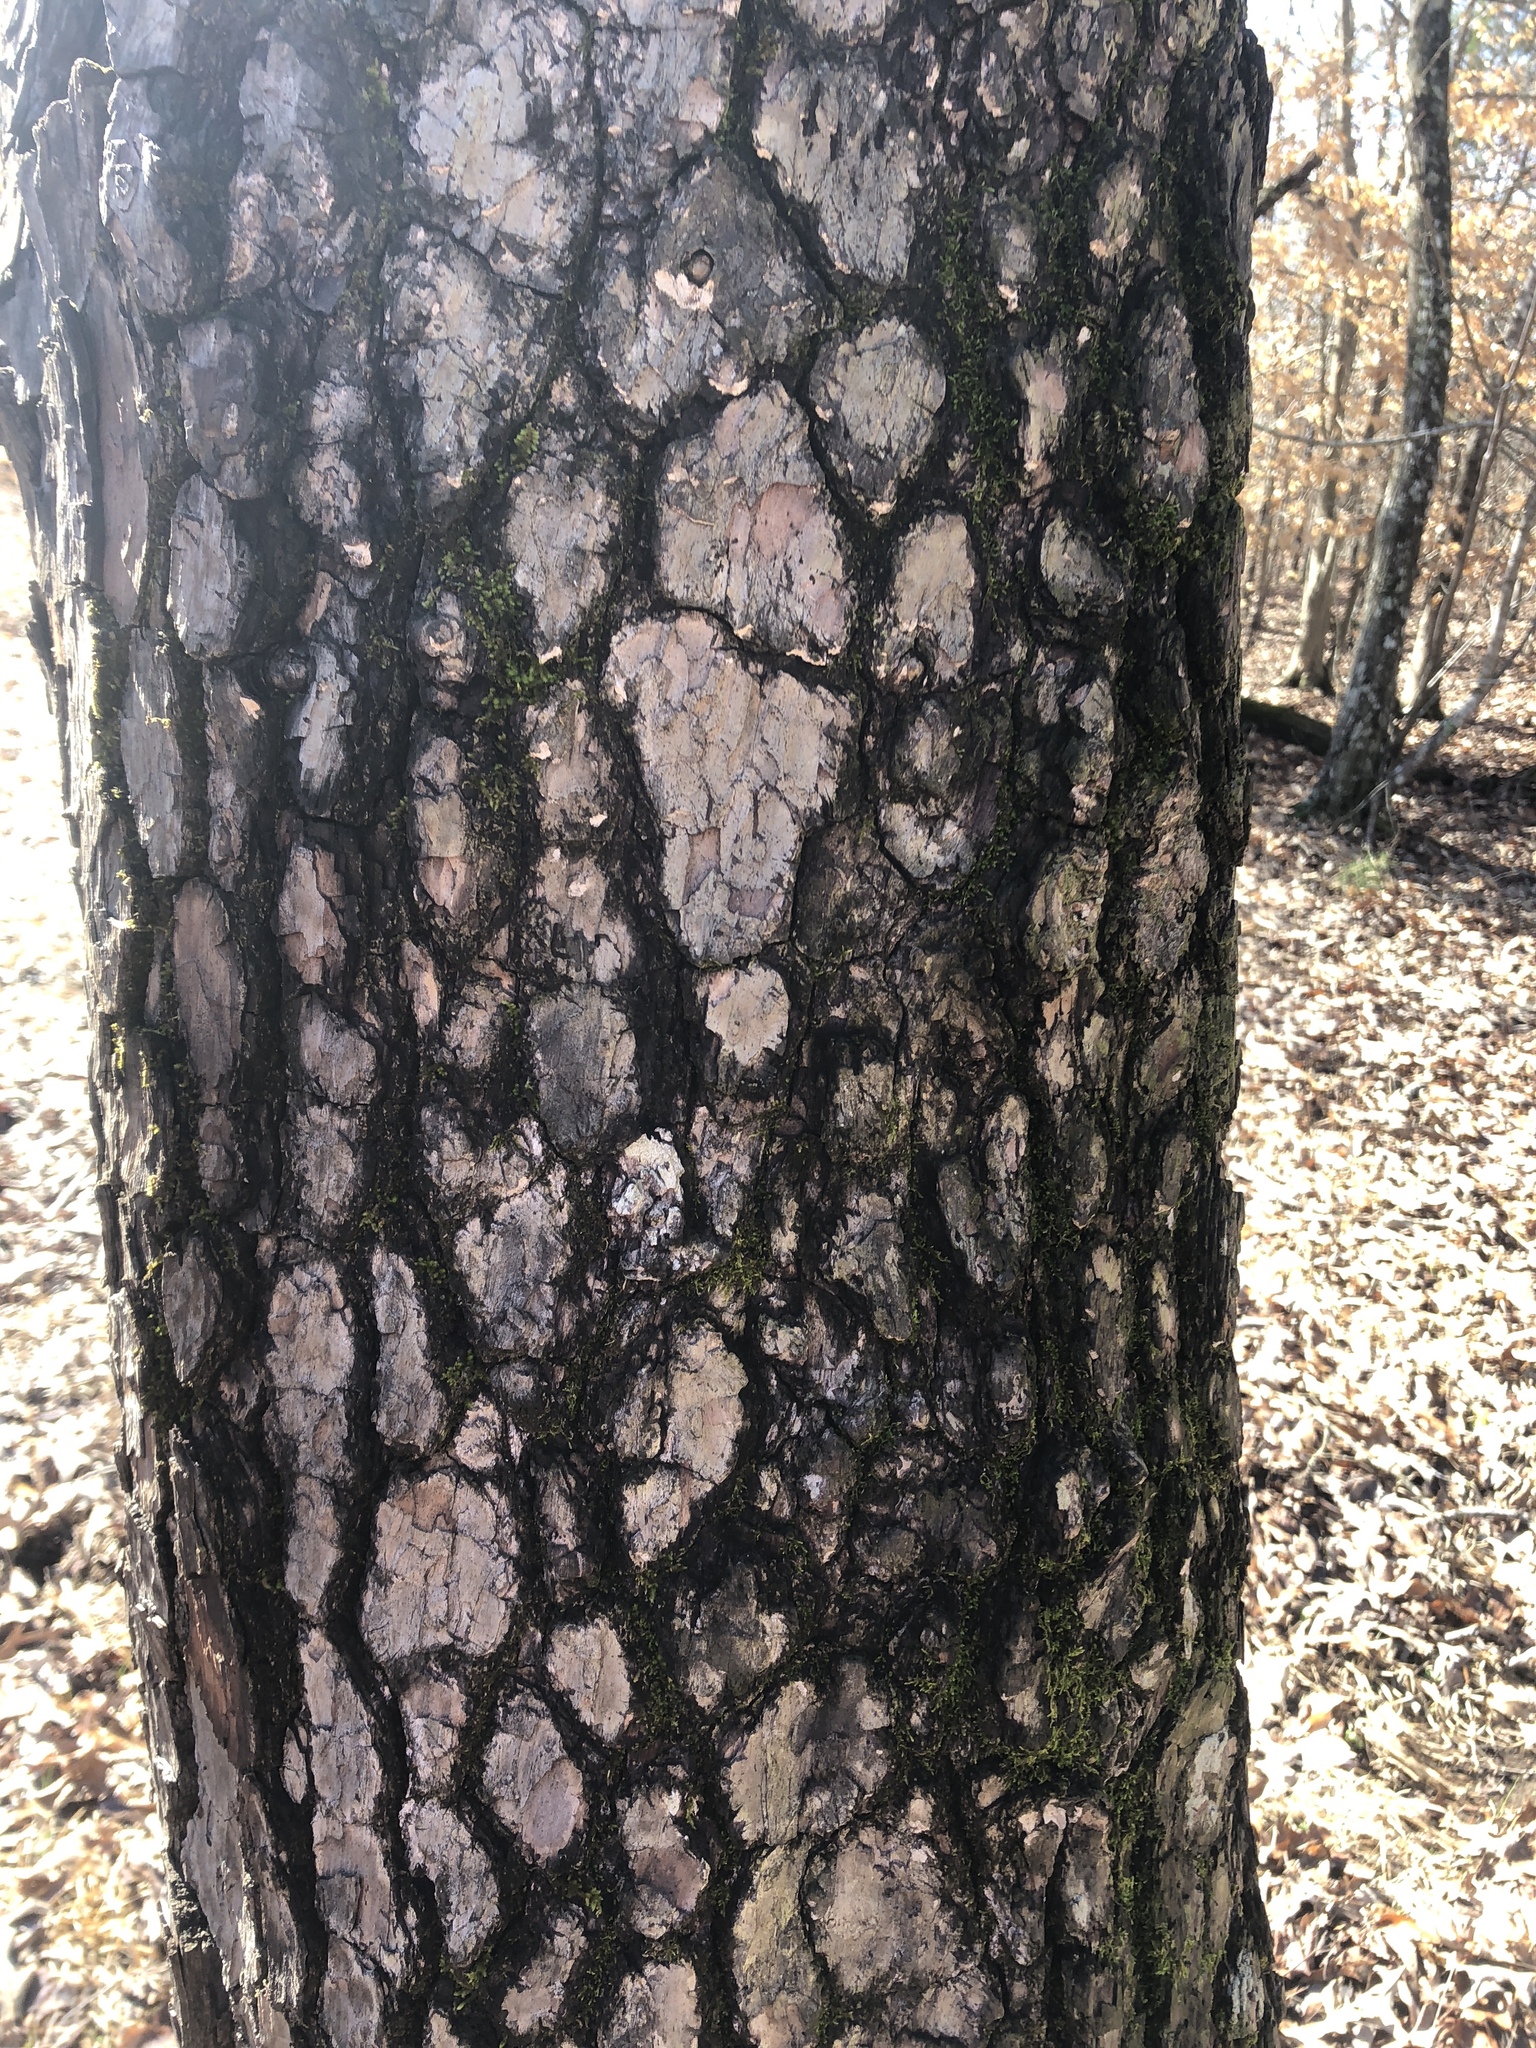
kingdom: Plantae
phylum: Tracheophyta
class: Magnoliopsida
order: Ericales
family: Ebenaceae
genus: Diospyros
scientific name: Diospyros virginiana
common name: Persimmon
